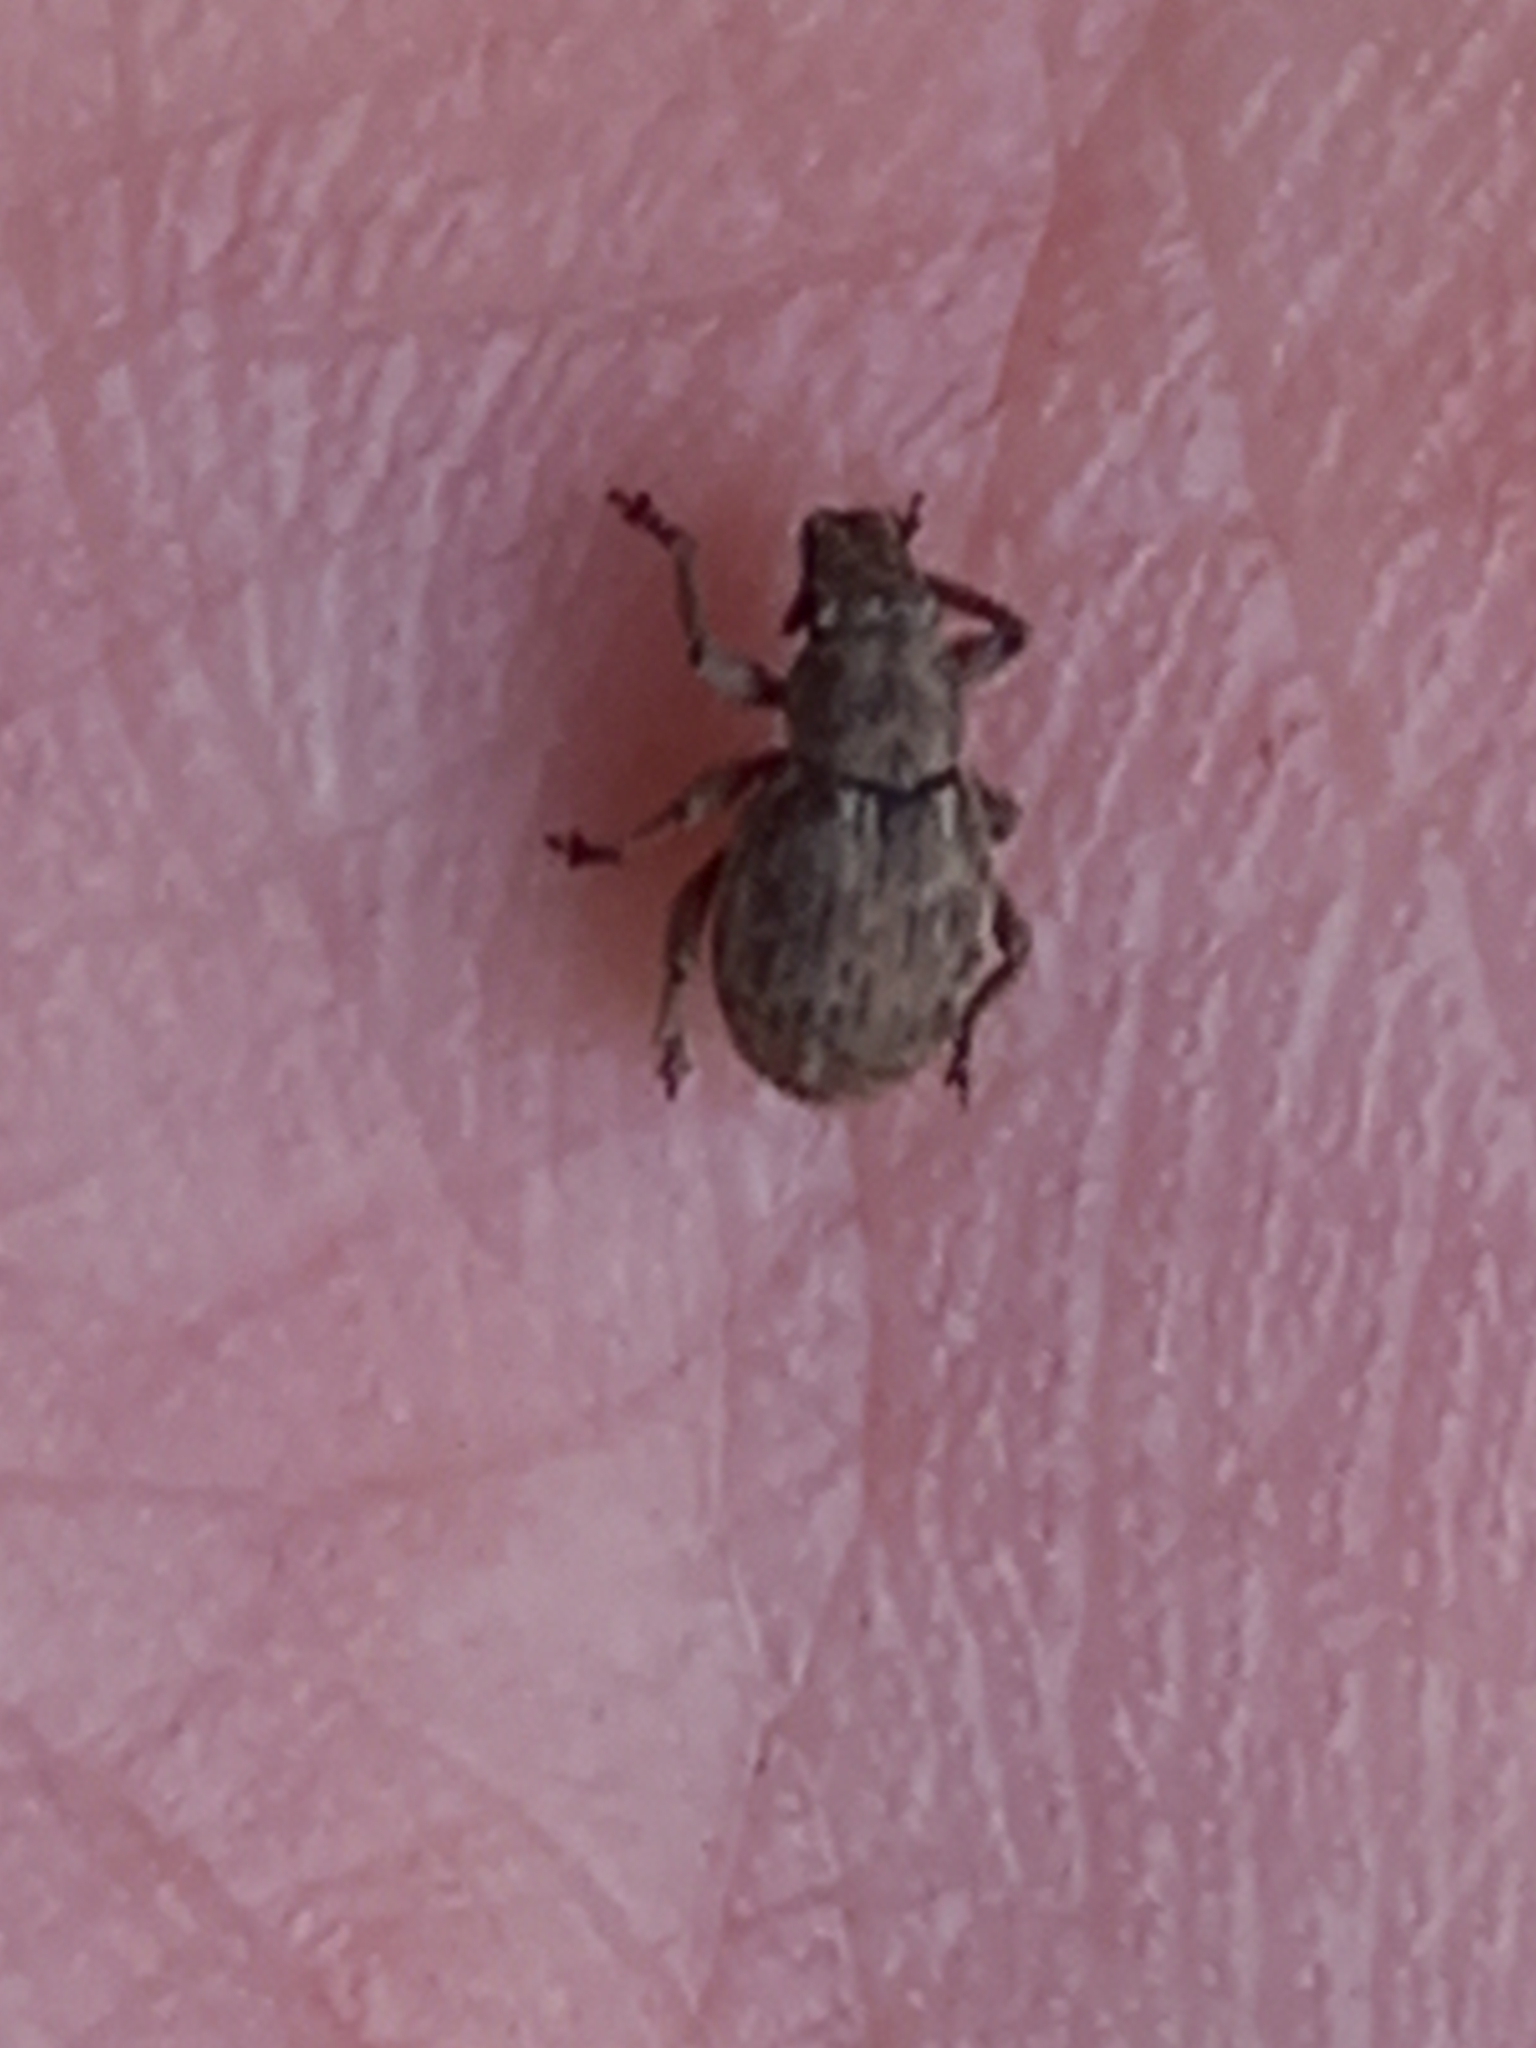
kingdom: Animalia
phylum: Arthropoda
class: Insecta
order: Coleoptera
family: Curculionidae
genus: Strophosoma
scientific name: Strophosoma capitatum
